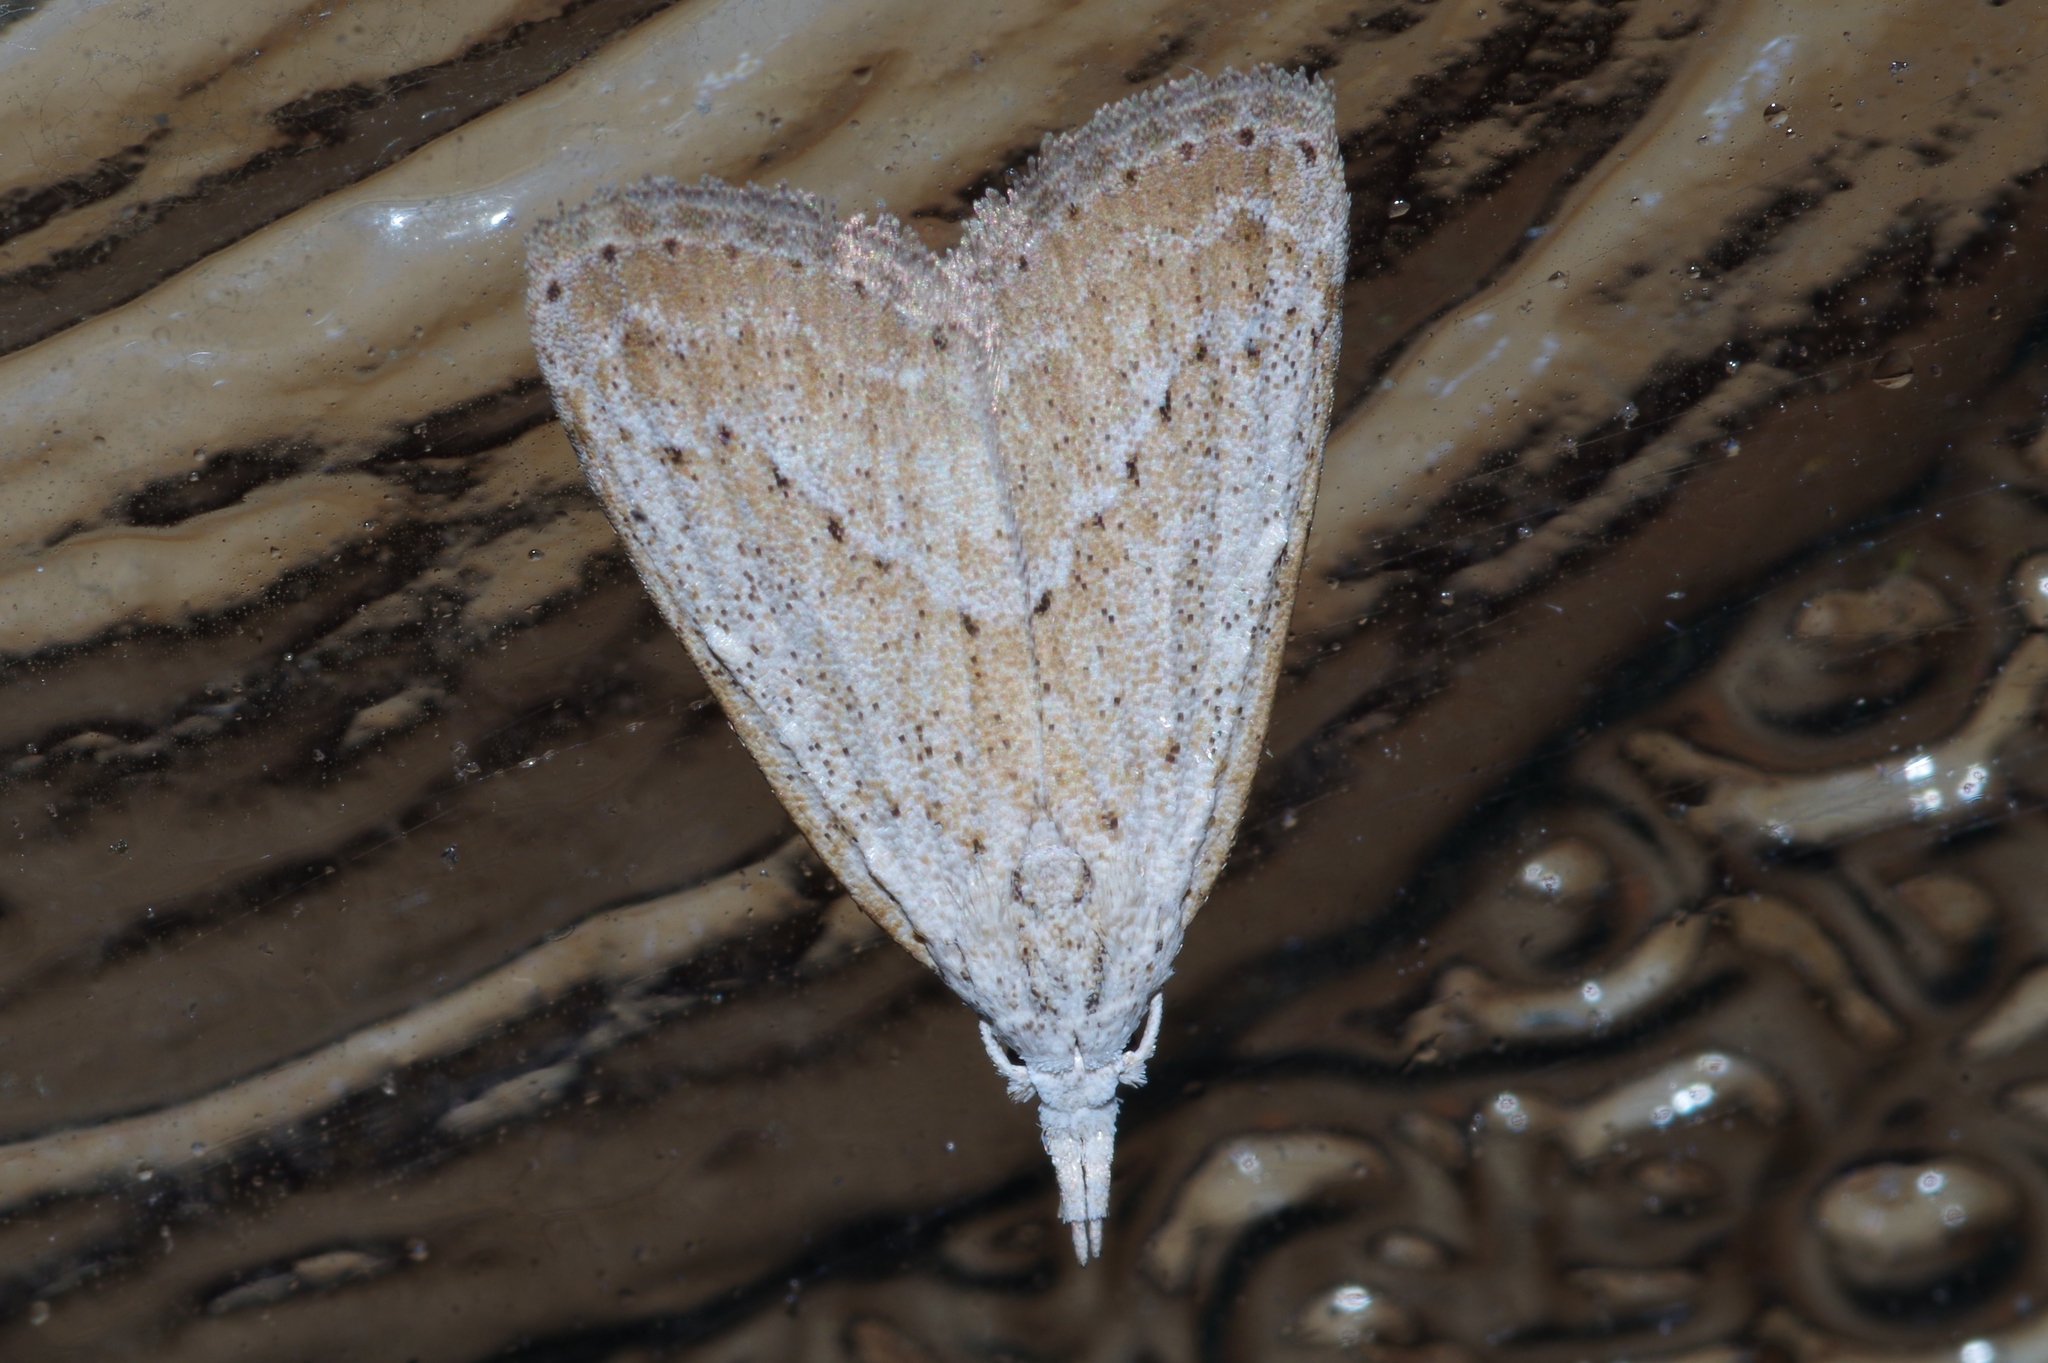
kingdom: Animalia
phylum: Arthropoda
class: Insecta
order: Lepidoptera
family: Nolidae
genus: Meganola
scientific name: Meganola brunellus
